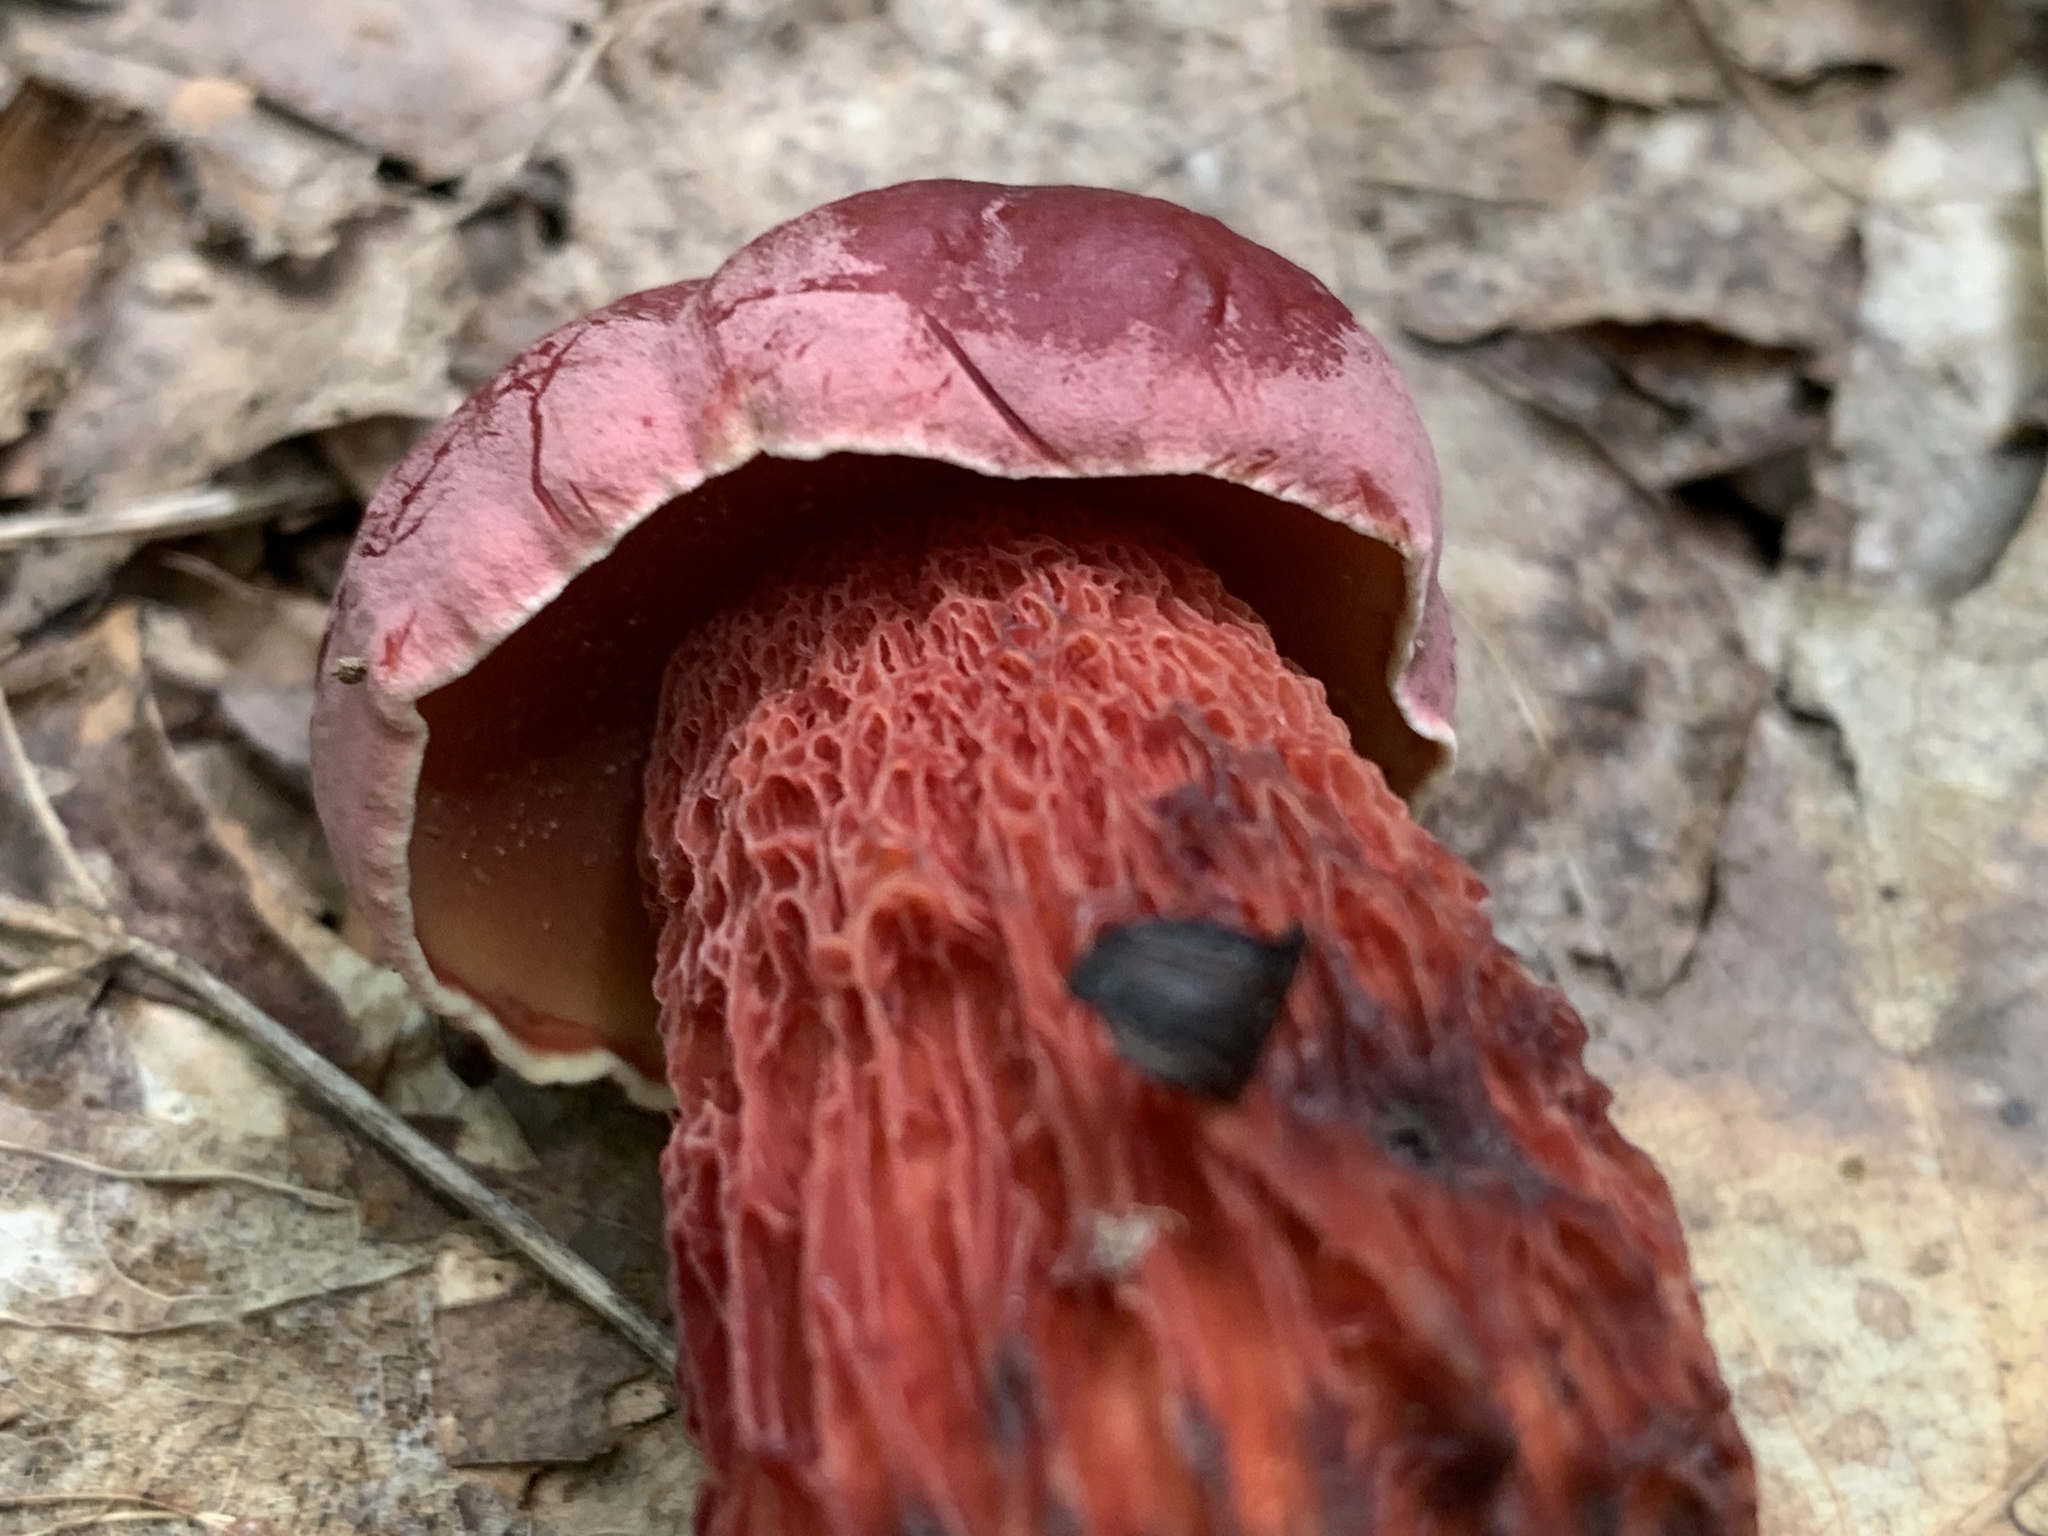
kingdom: Fungi
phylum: Basidiomycota
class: Agaricomycetes
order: Boletales
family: Boletaceae
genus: Butyriboletus
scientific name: Butyriboletus frostii
